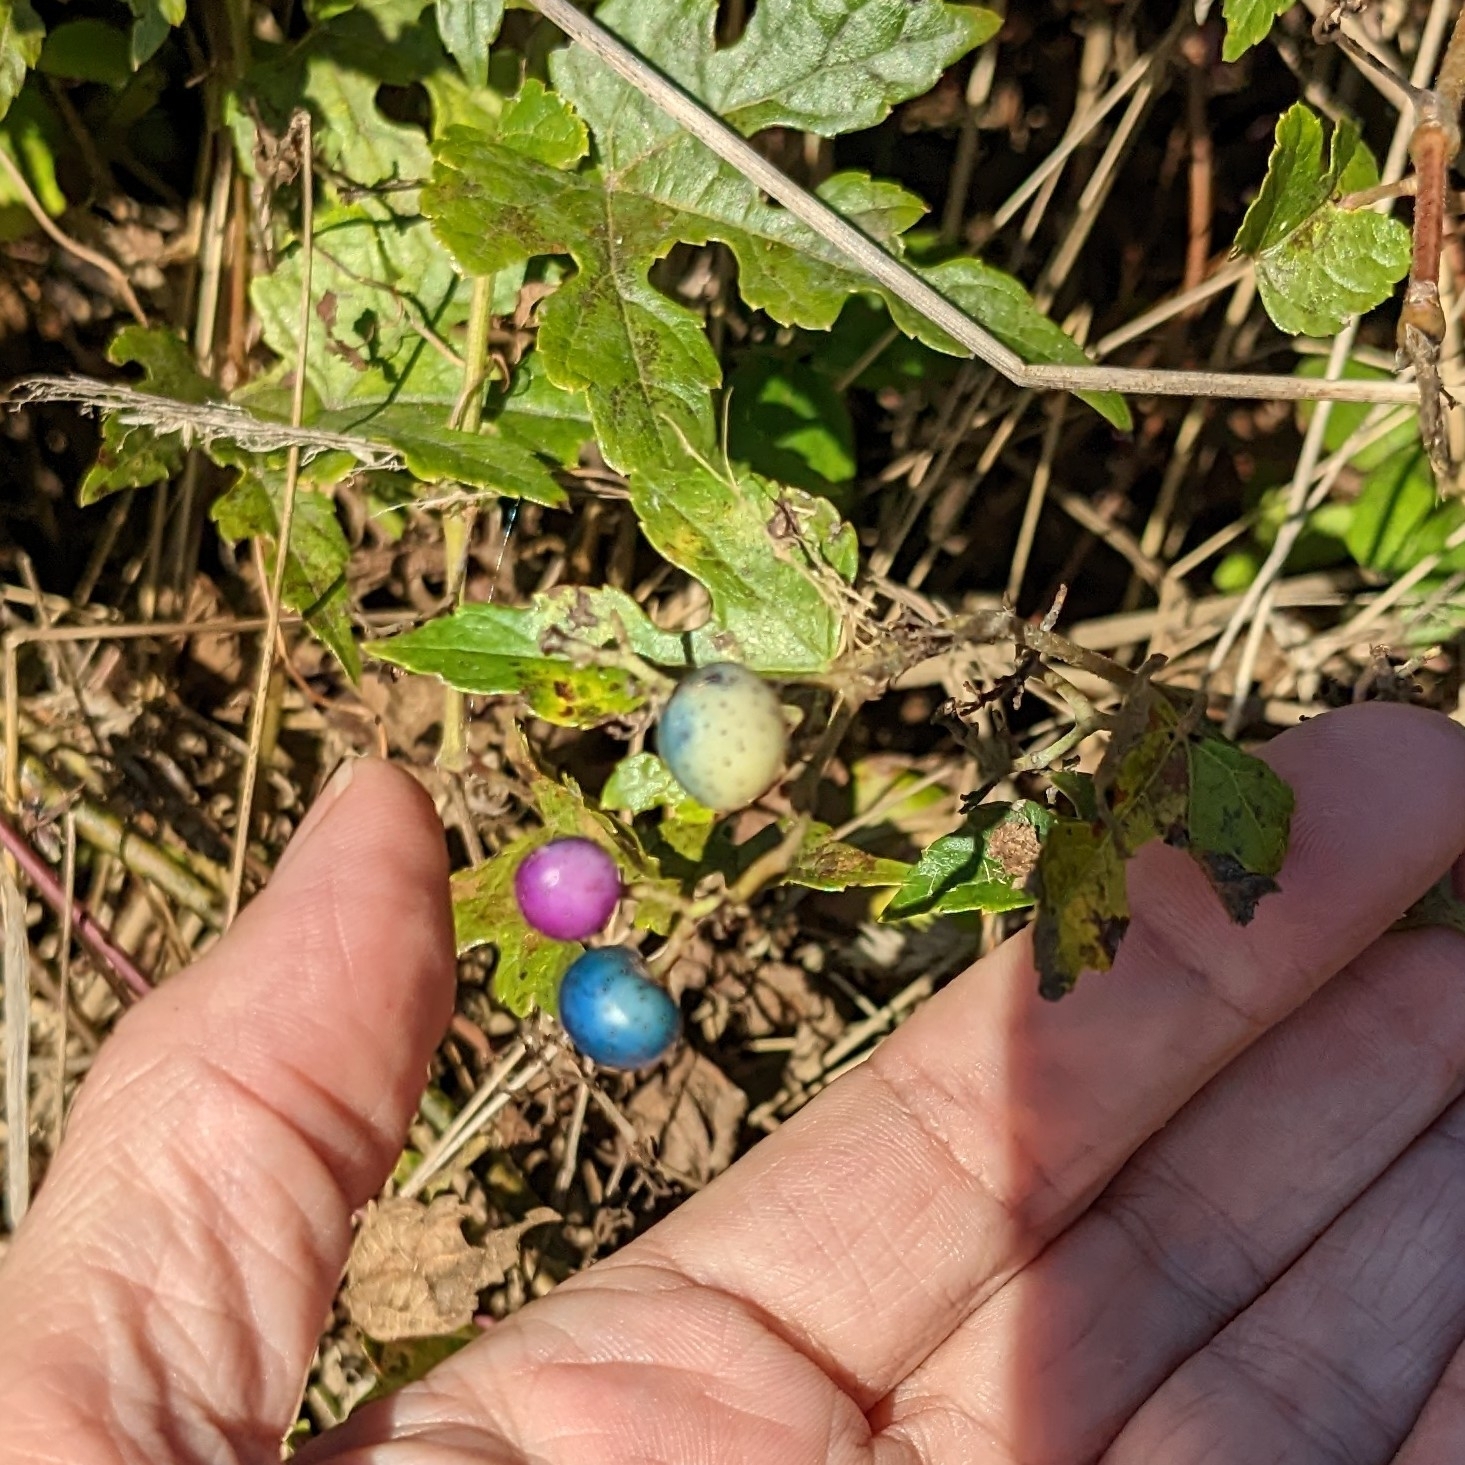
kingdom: Plantae
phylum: Tracheophyta
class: Magnoliopsida
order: Vitales
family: Vitaceae
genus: Ampelopsis
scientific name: Ampelopsis glandulosa
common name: Amur peppervine
